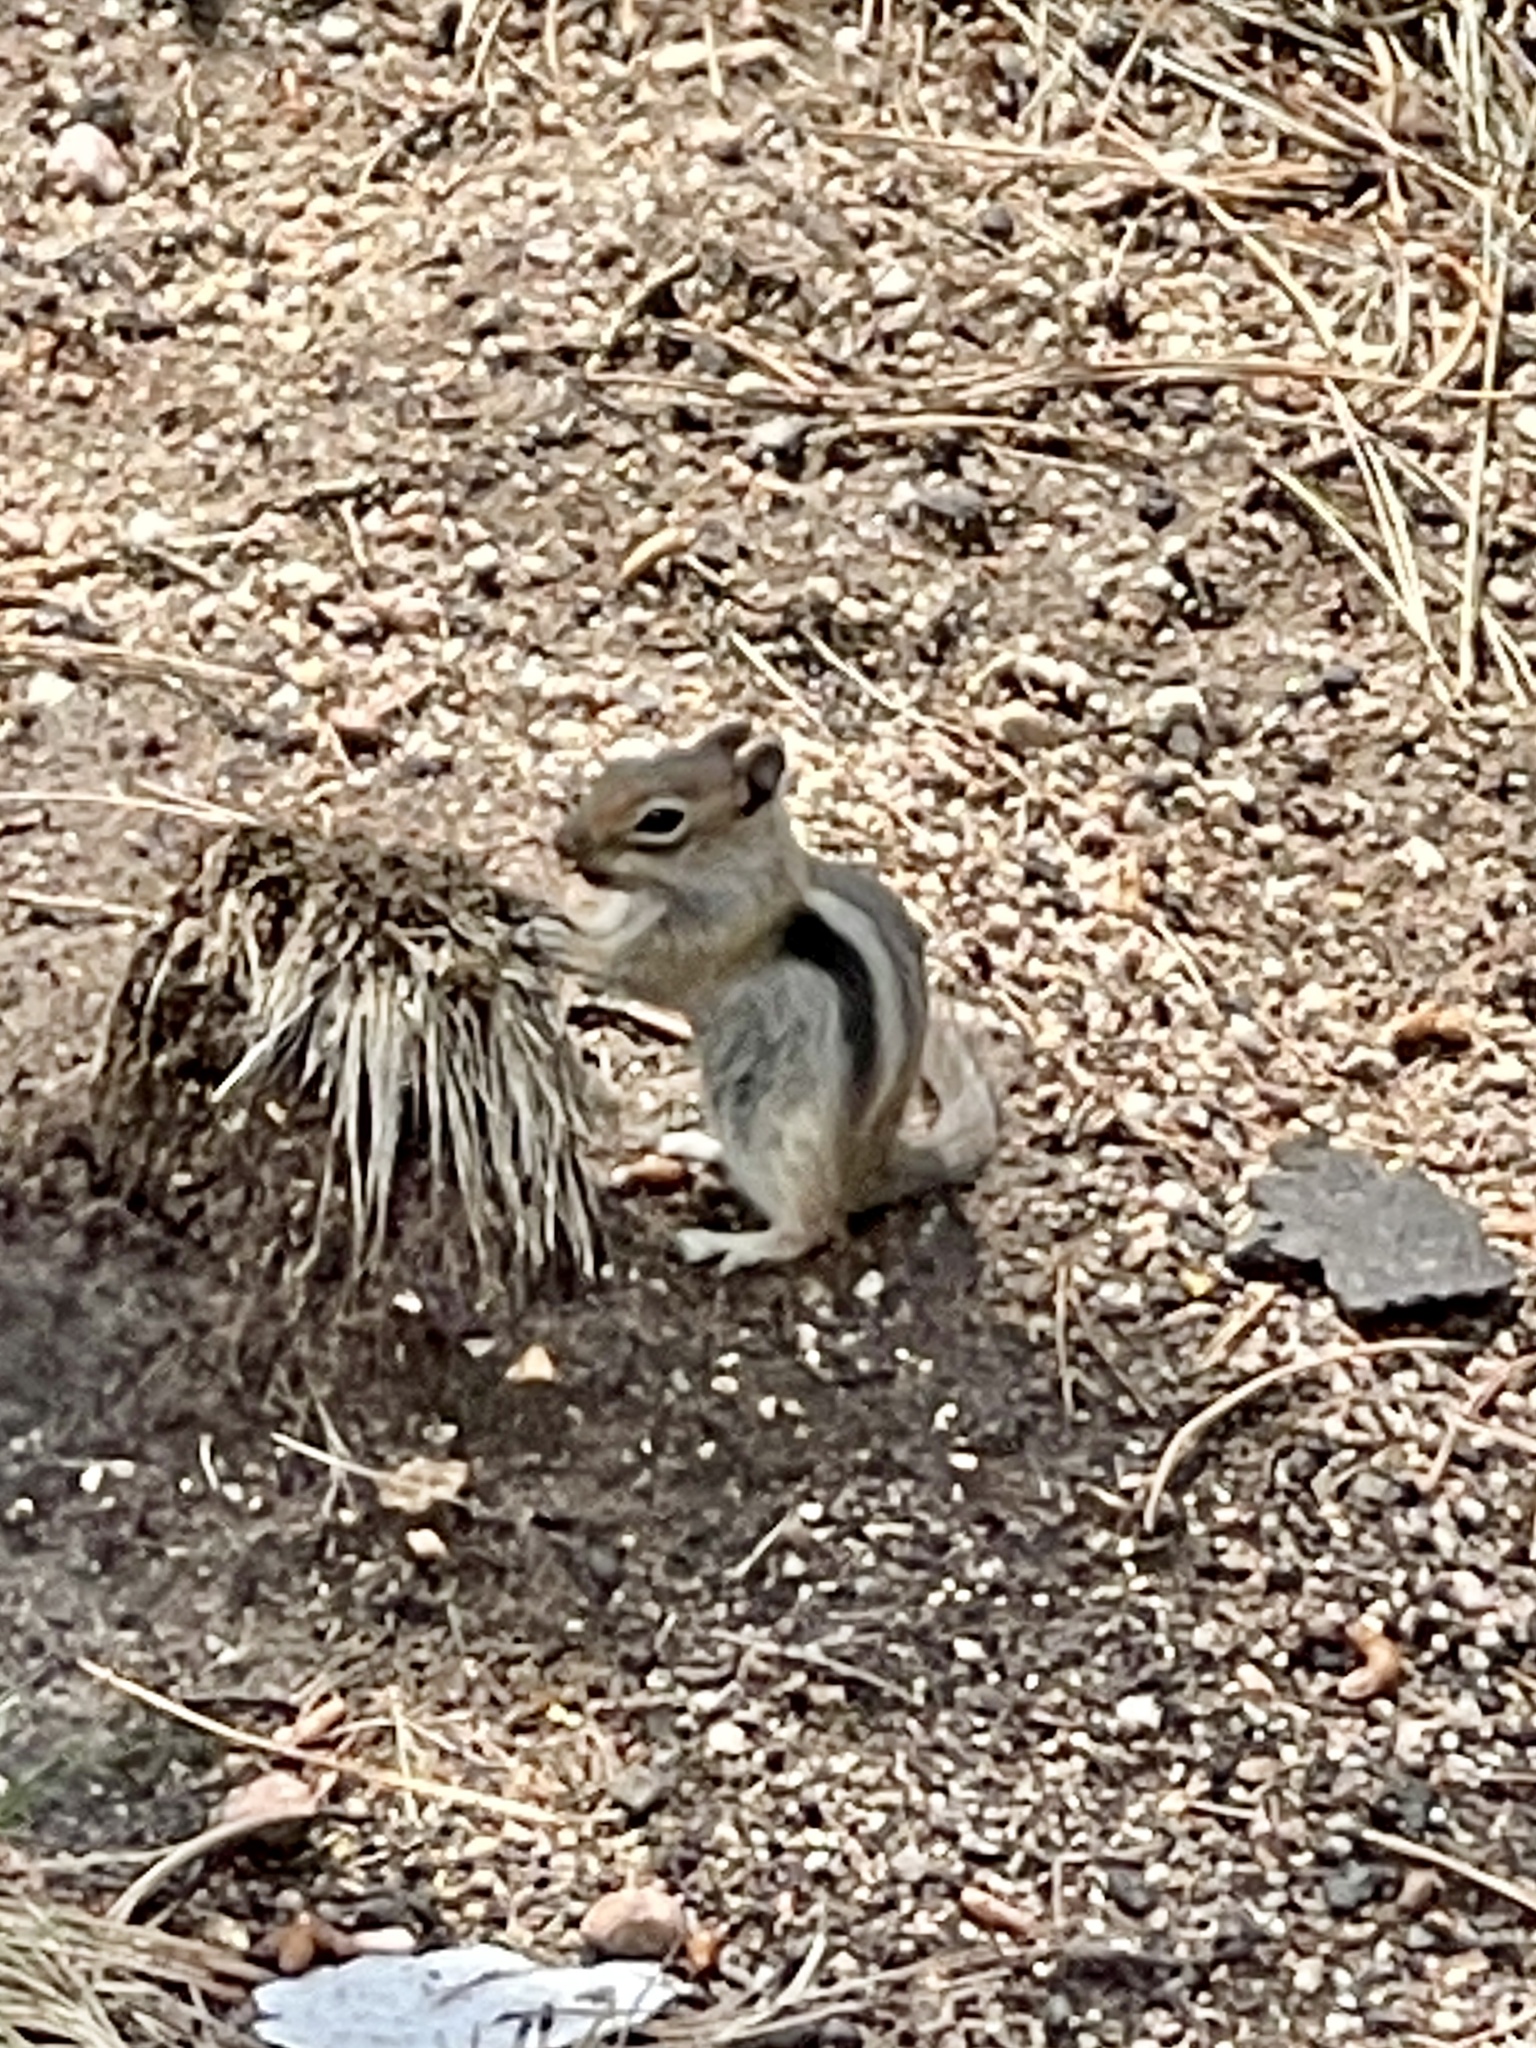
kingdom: Animalia
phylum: Chordata
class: Mammalia
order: Rodentia
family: Sciuridae
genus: Callospermophilus
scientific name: Callospermophilus lateralis
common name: Golden-mantled ground squirrel
